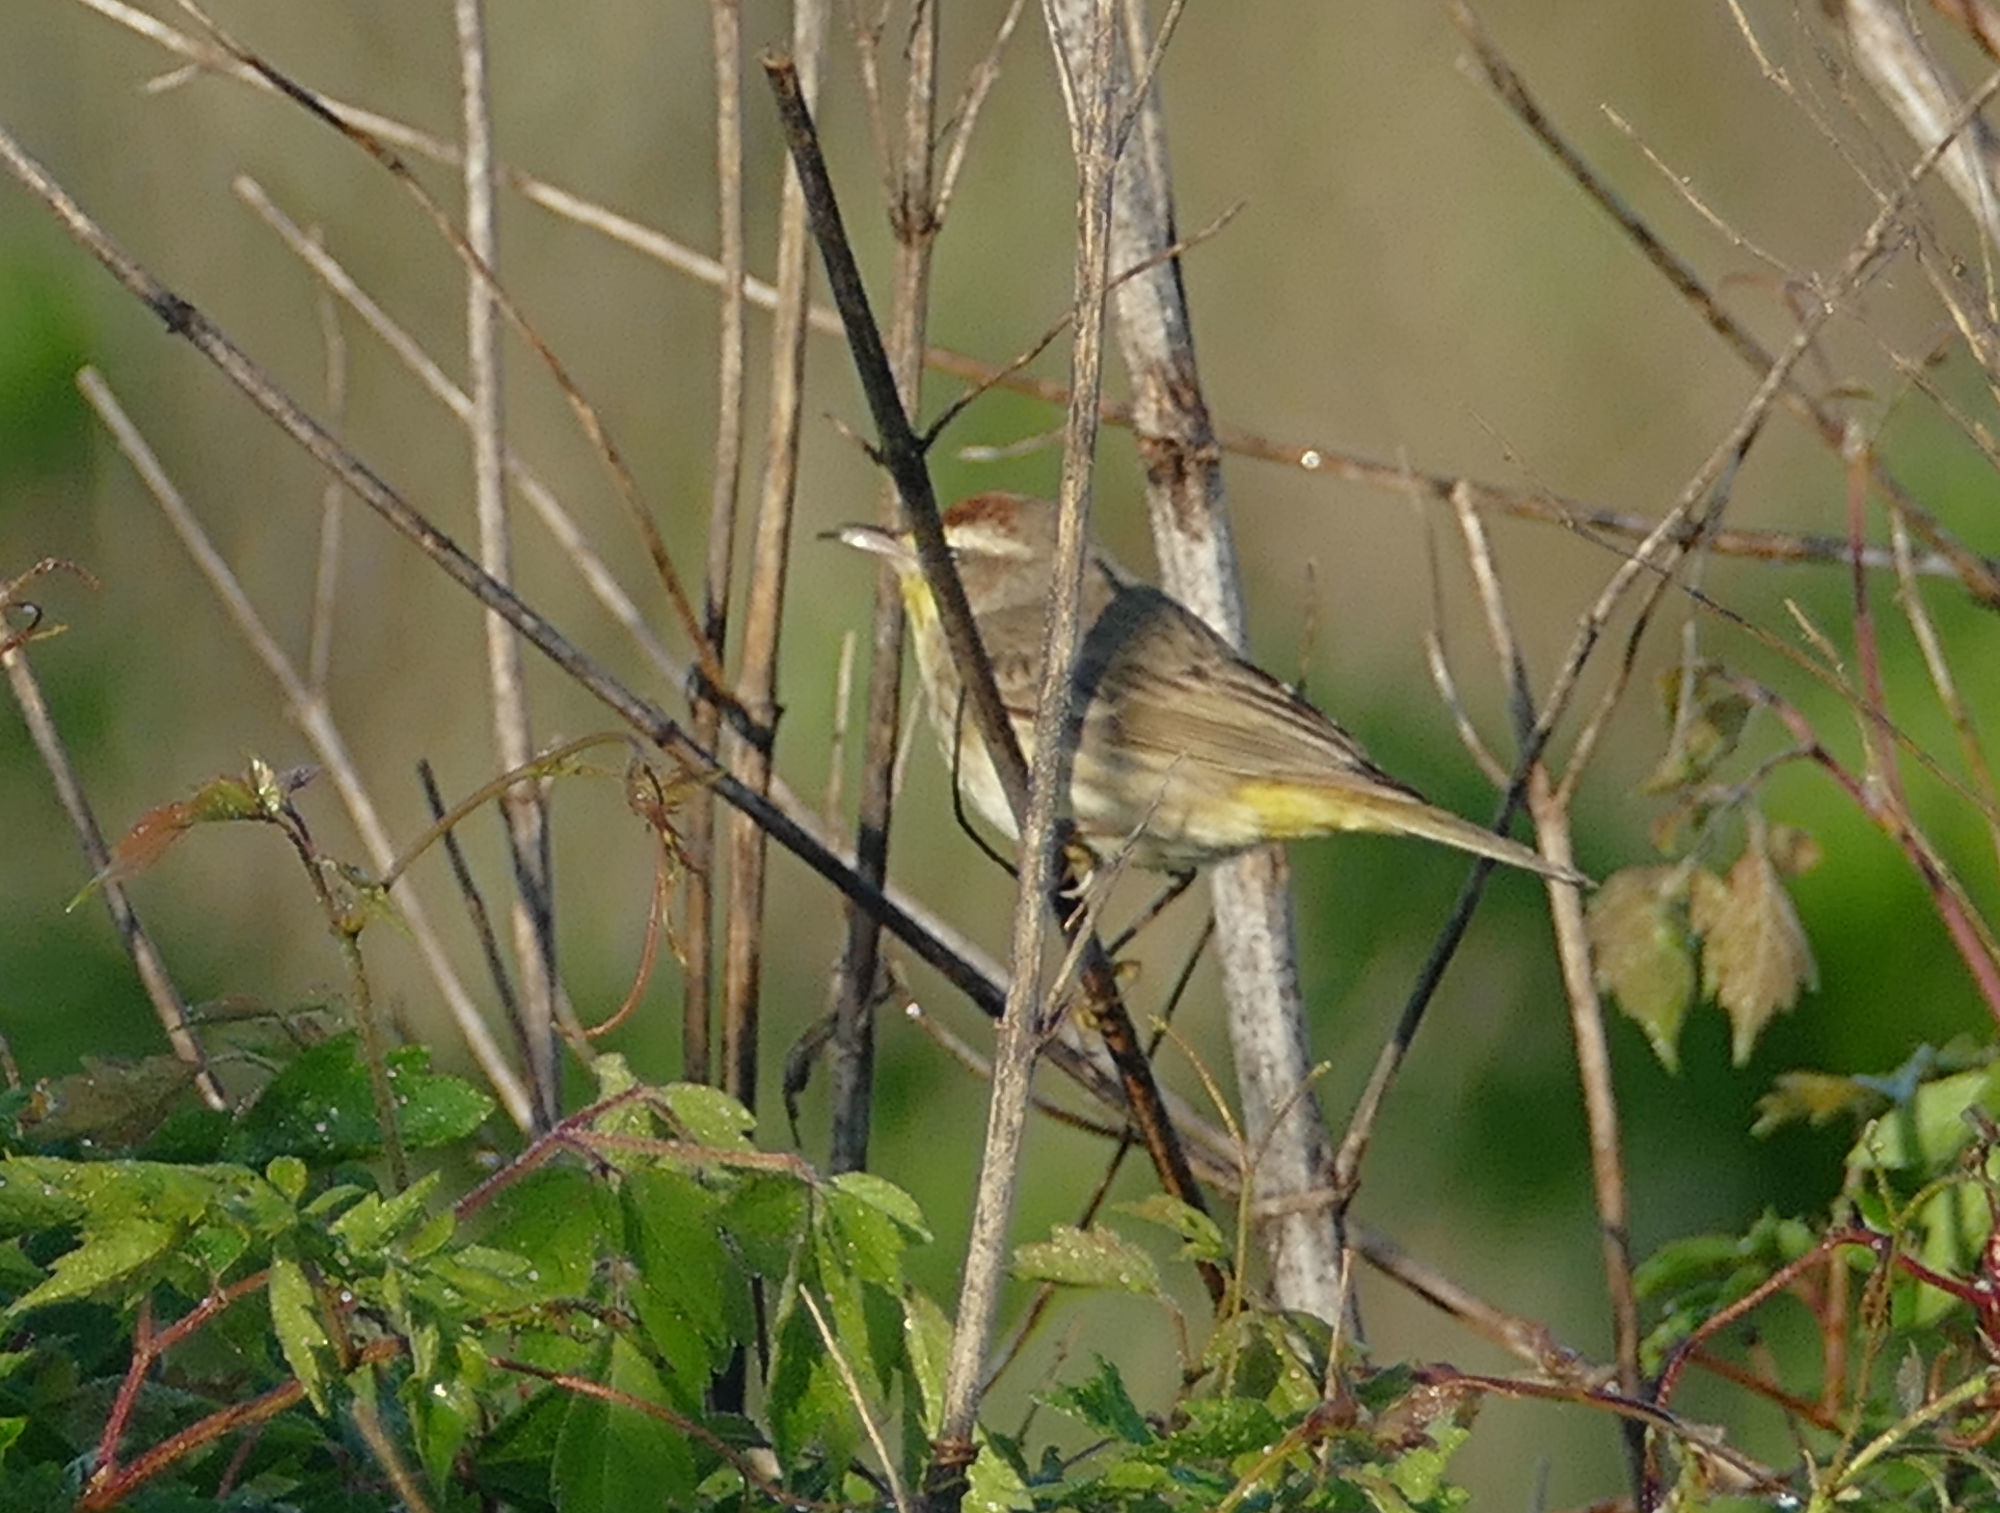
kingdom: Animalia
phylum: Chordata
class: Aves
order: Passeriformes
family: Parulidae
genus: Setophaga
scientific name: Setophaga palmarum
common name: Palm warbler
